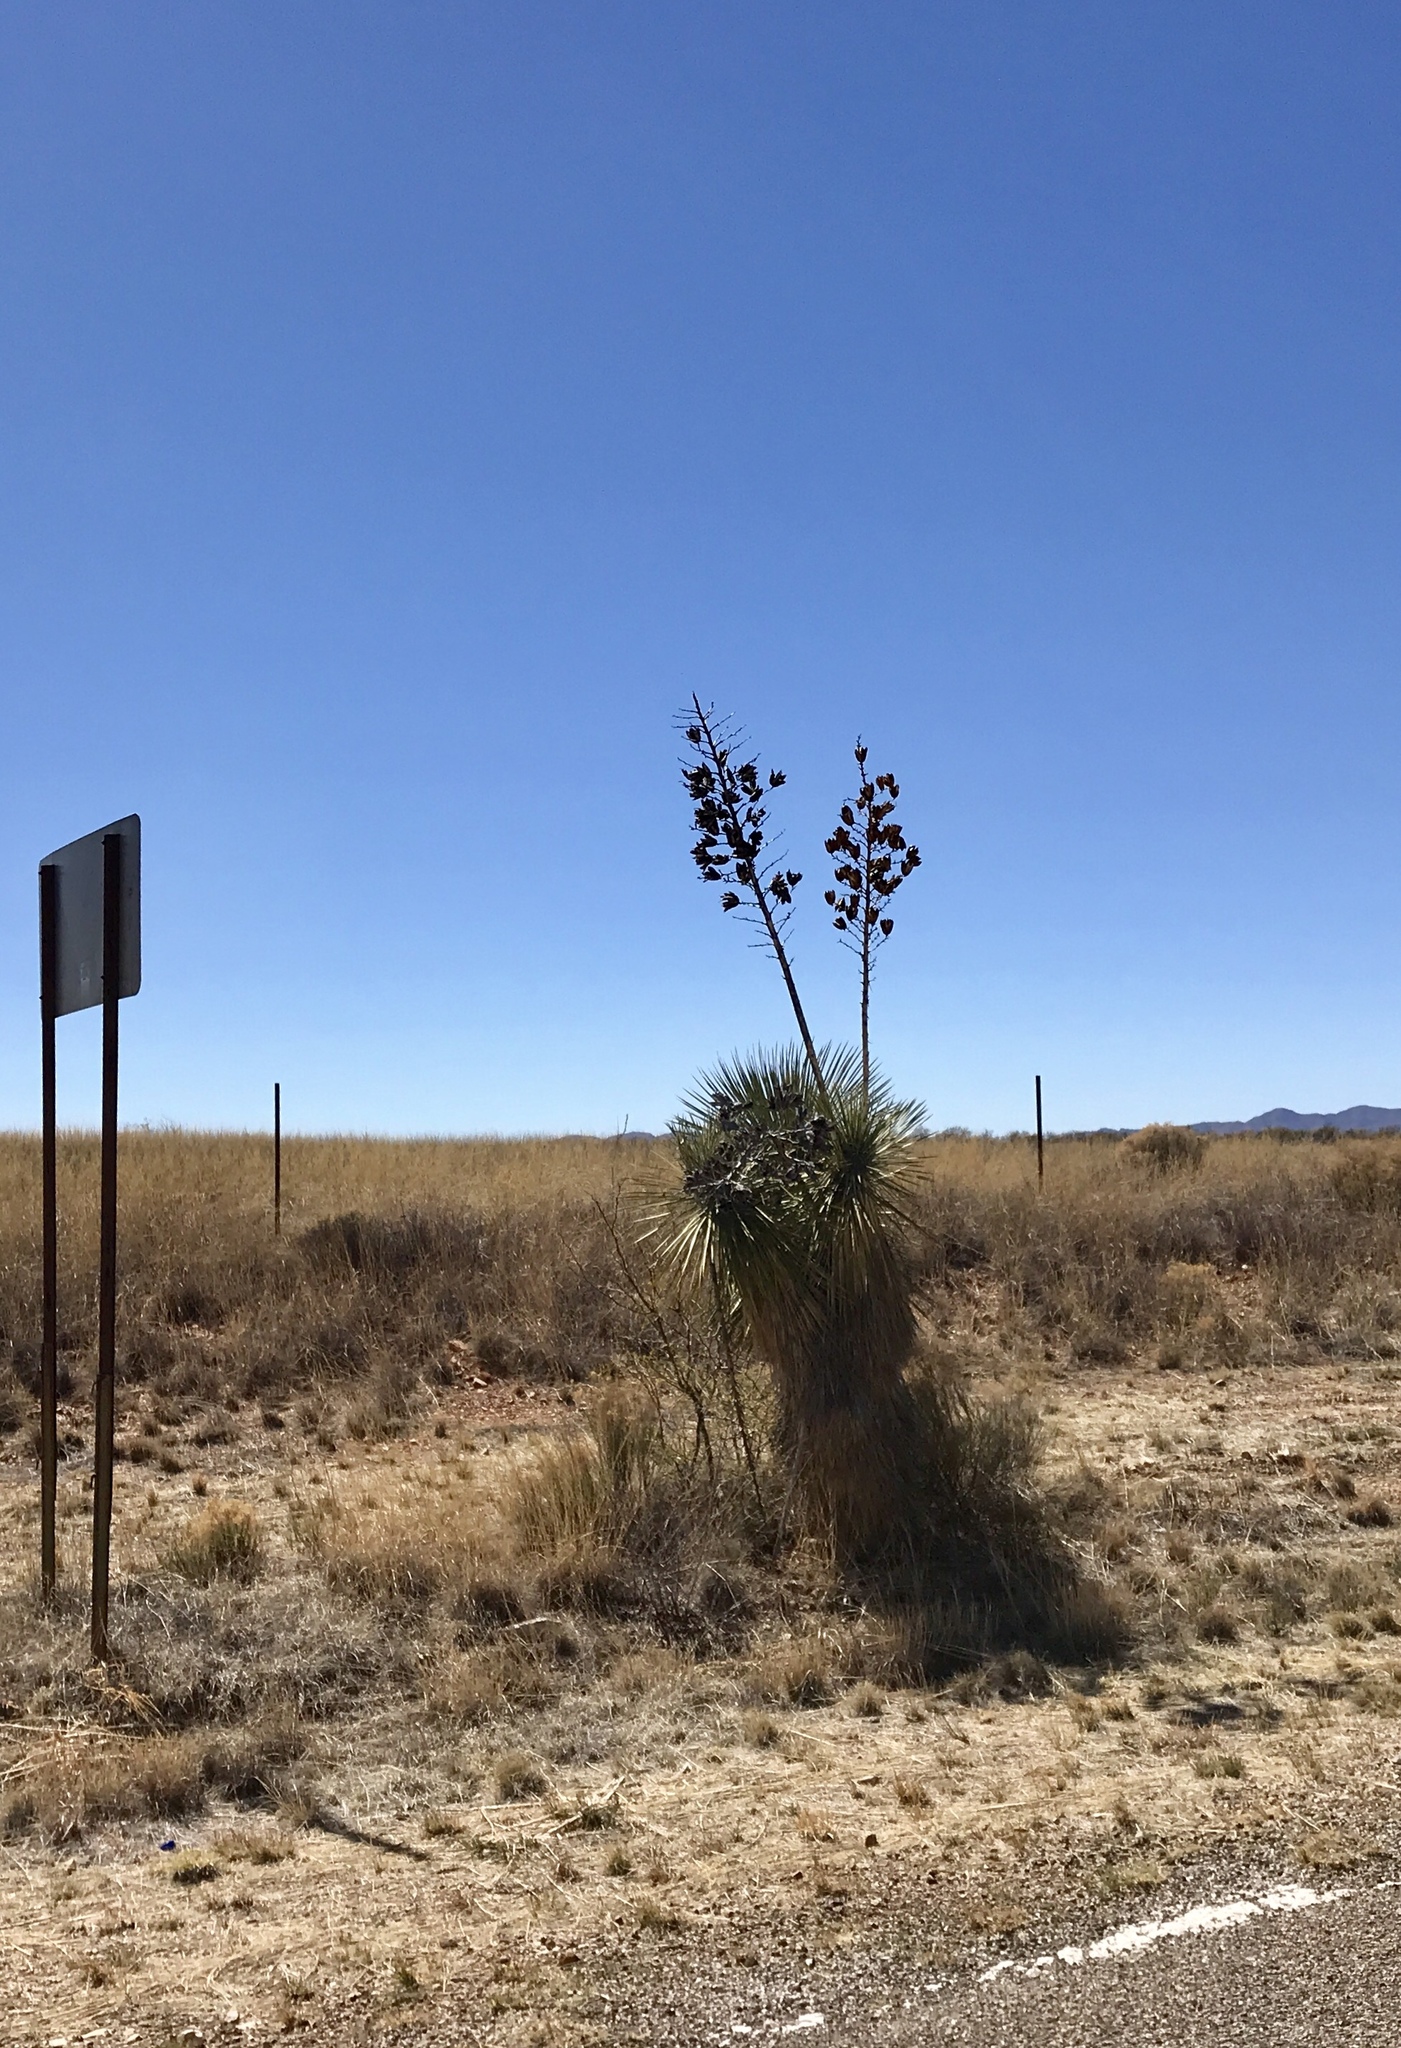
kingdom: Plantae
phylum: Tracheophyta
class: Liliopsida
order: Asparagales
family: Asparagaceae
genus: Yucca
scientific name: Yucca elata
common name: Palmella
